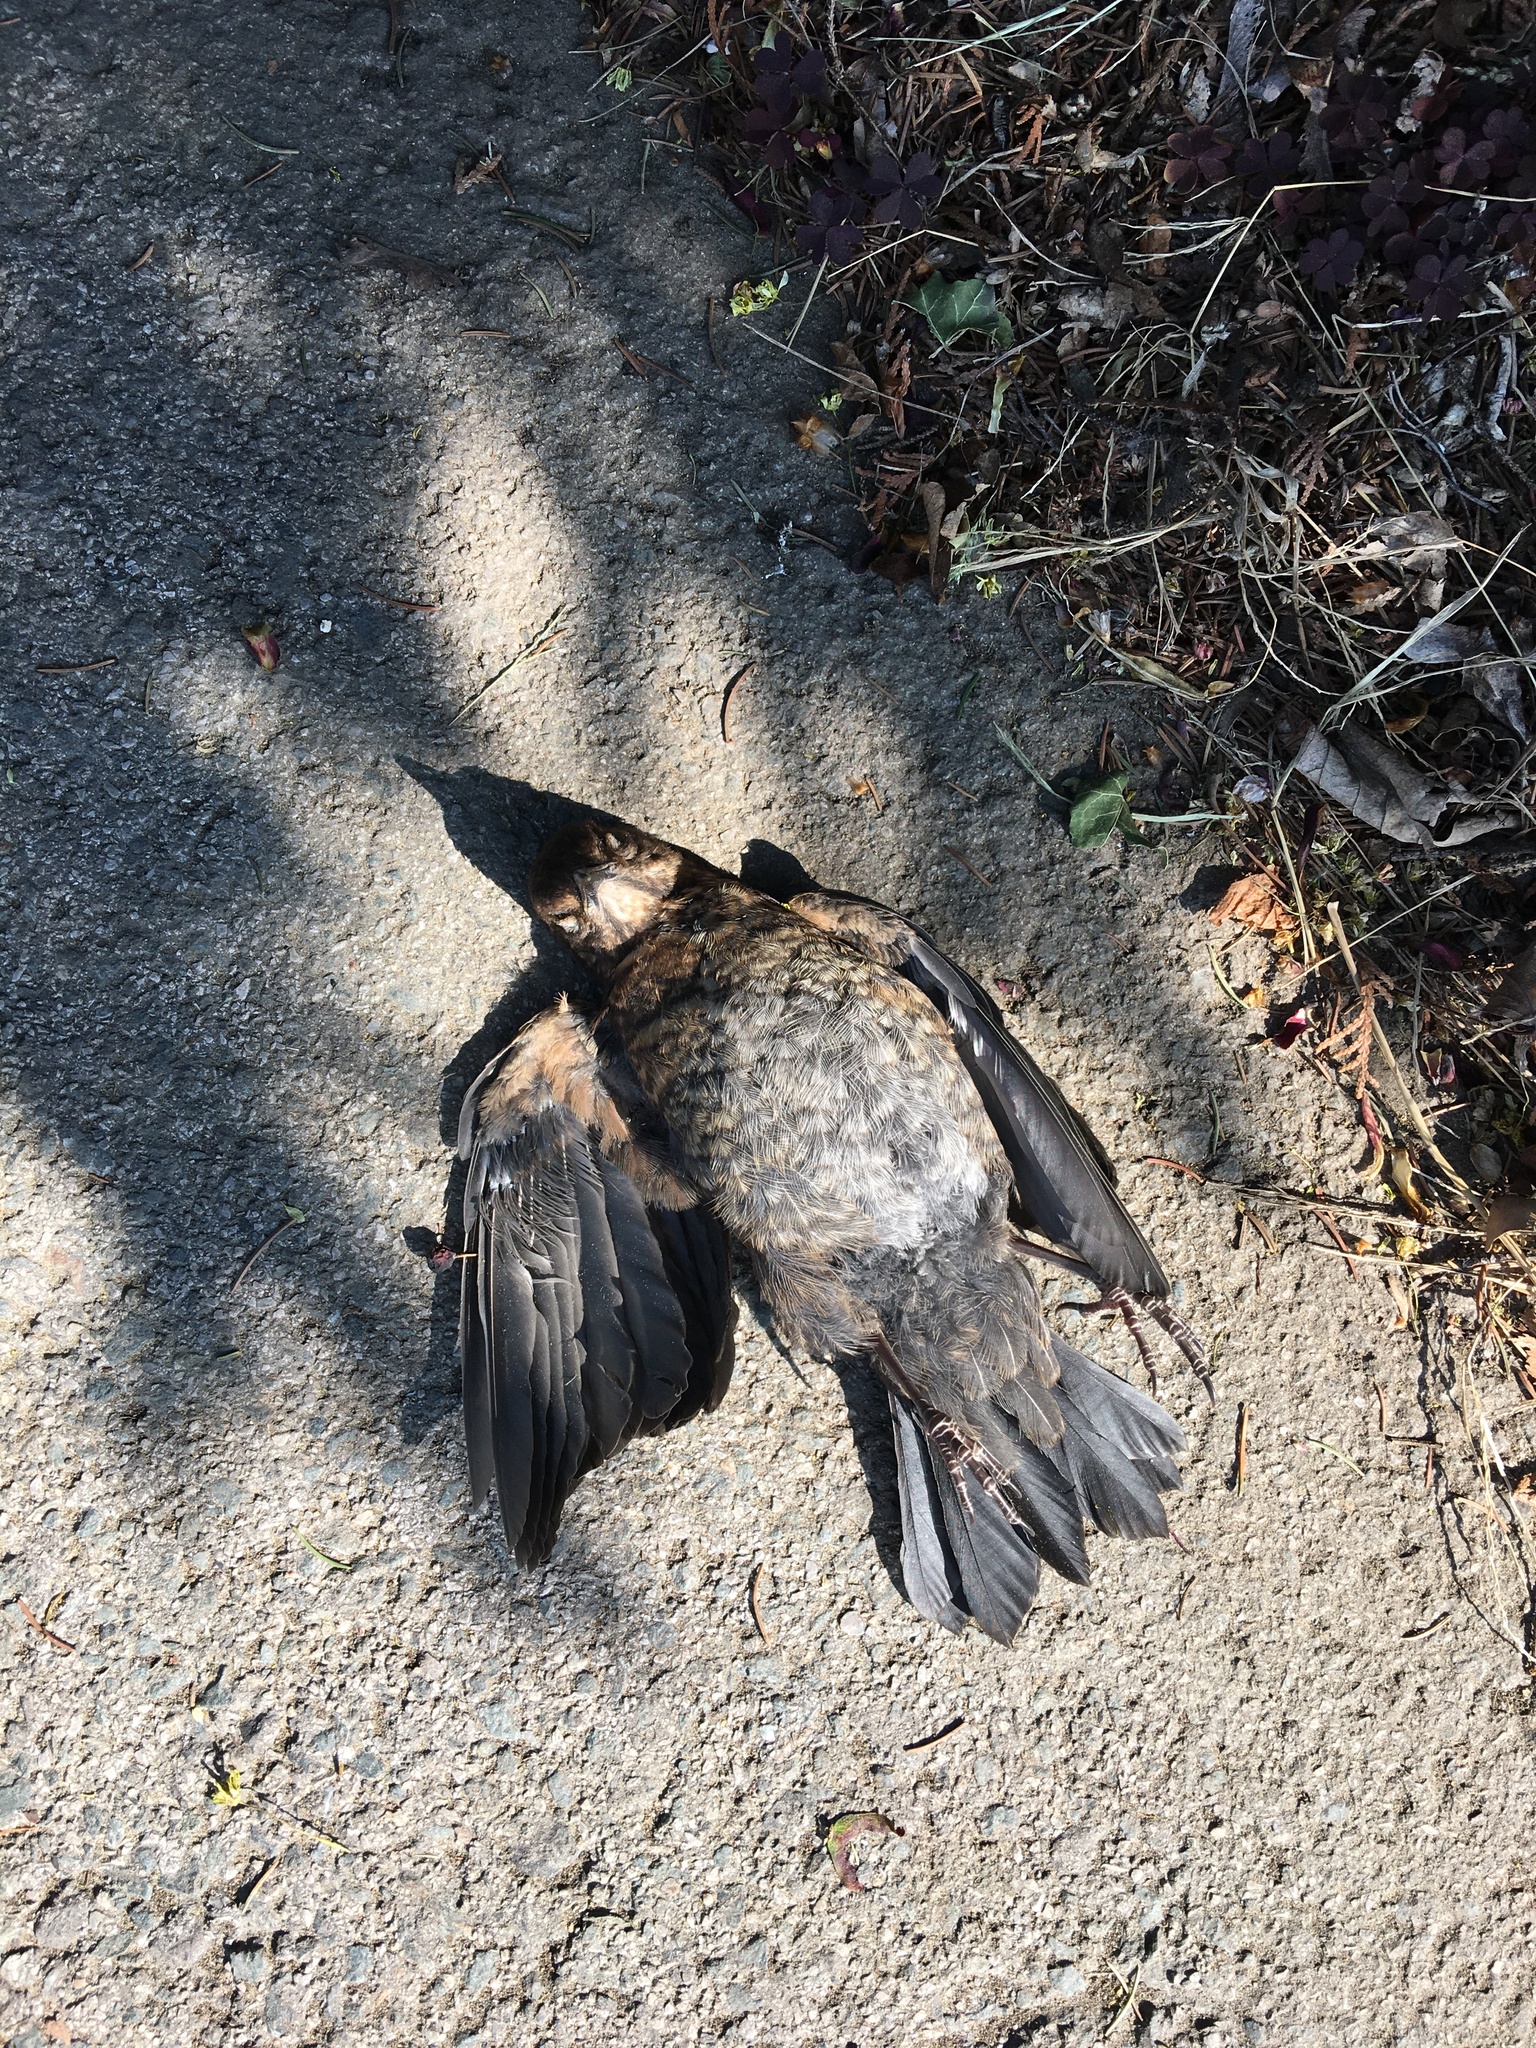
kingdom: Animalia
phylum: Chordata
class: Aves
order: Passeriformes
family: Turdidae
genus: Turdus
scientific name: Turdus merula
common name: Common blackbird
